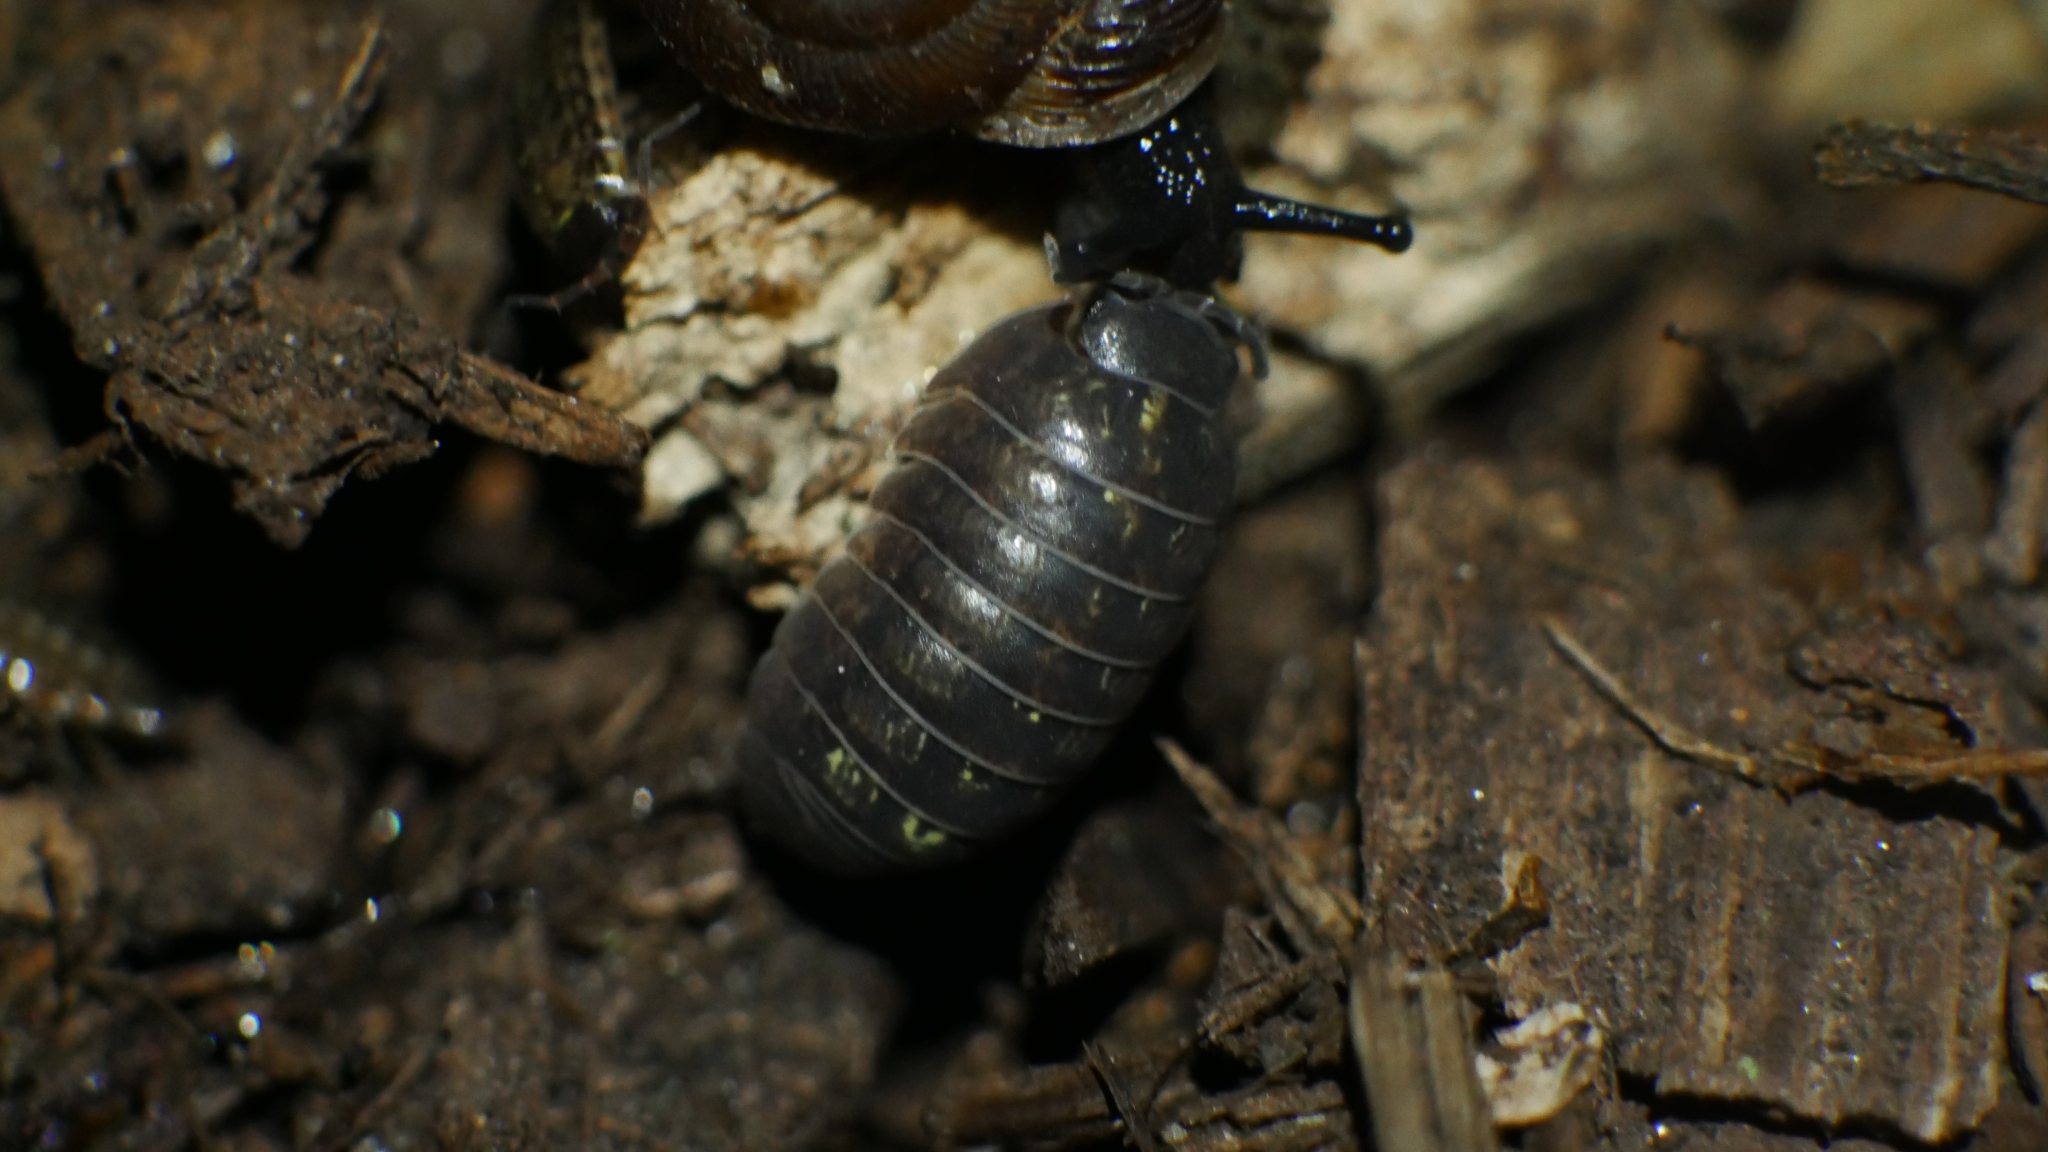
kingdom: Animalia
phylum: Arthropoda
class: Malacostraca
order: Isopoda
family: Armadillidiidae
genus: Armadillidium
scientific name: Armadillidium vulgare
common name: Common pill woodlouse
